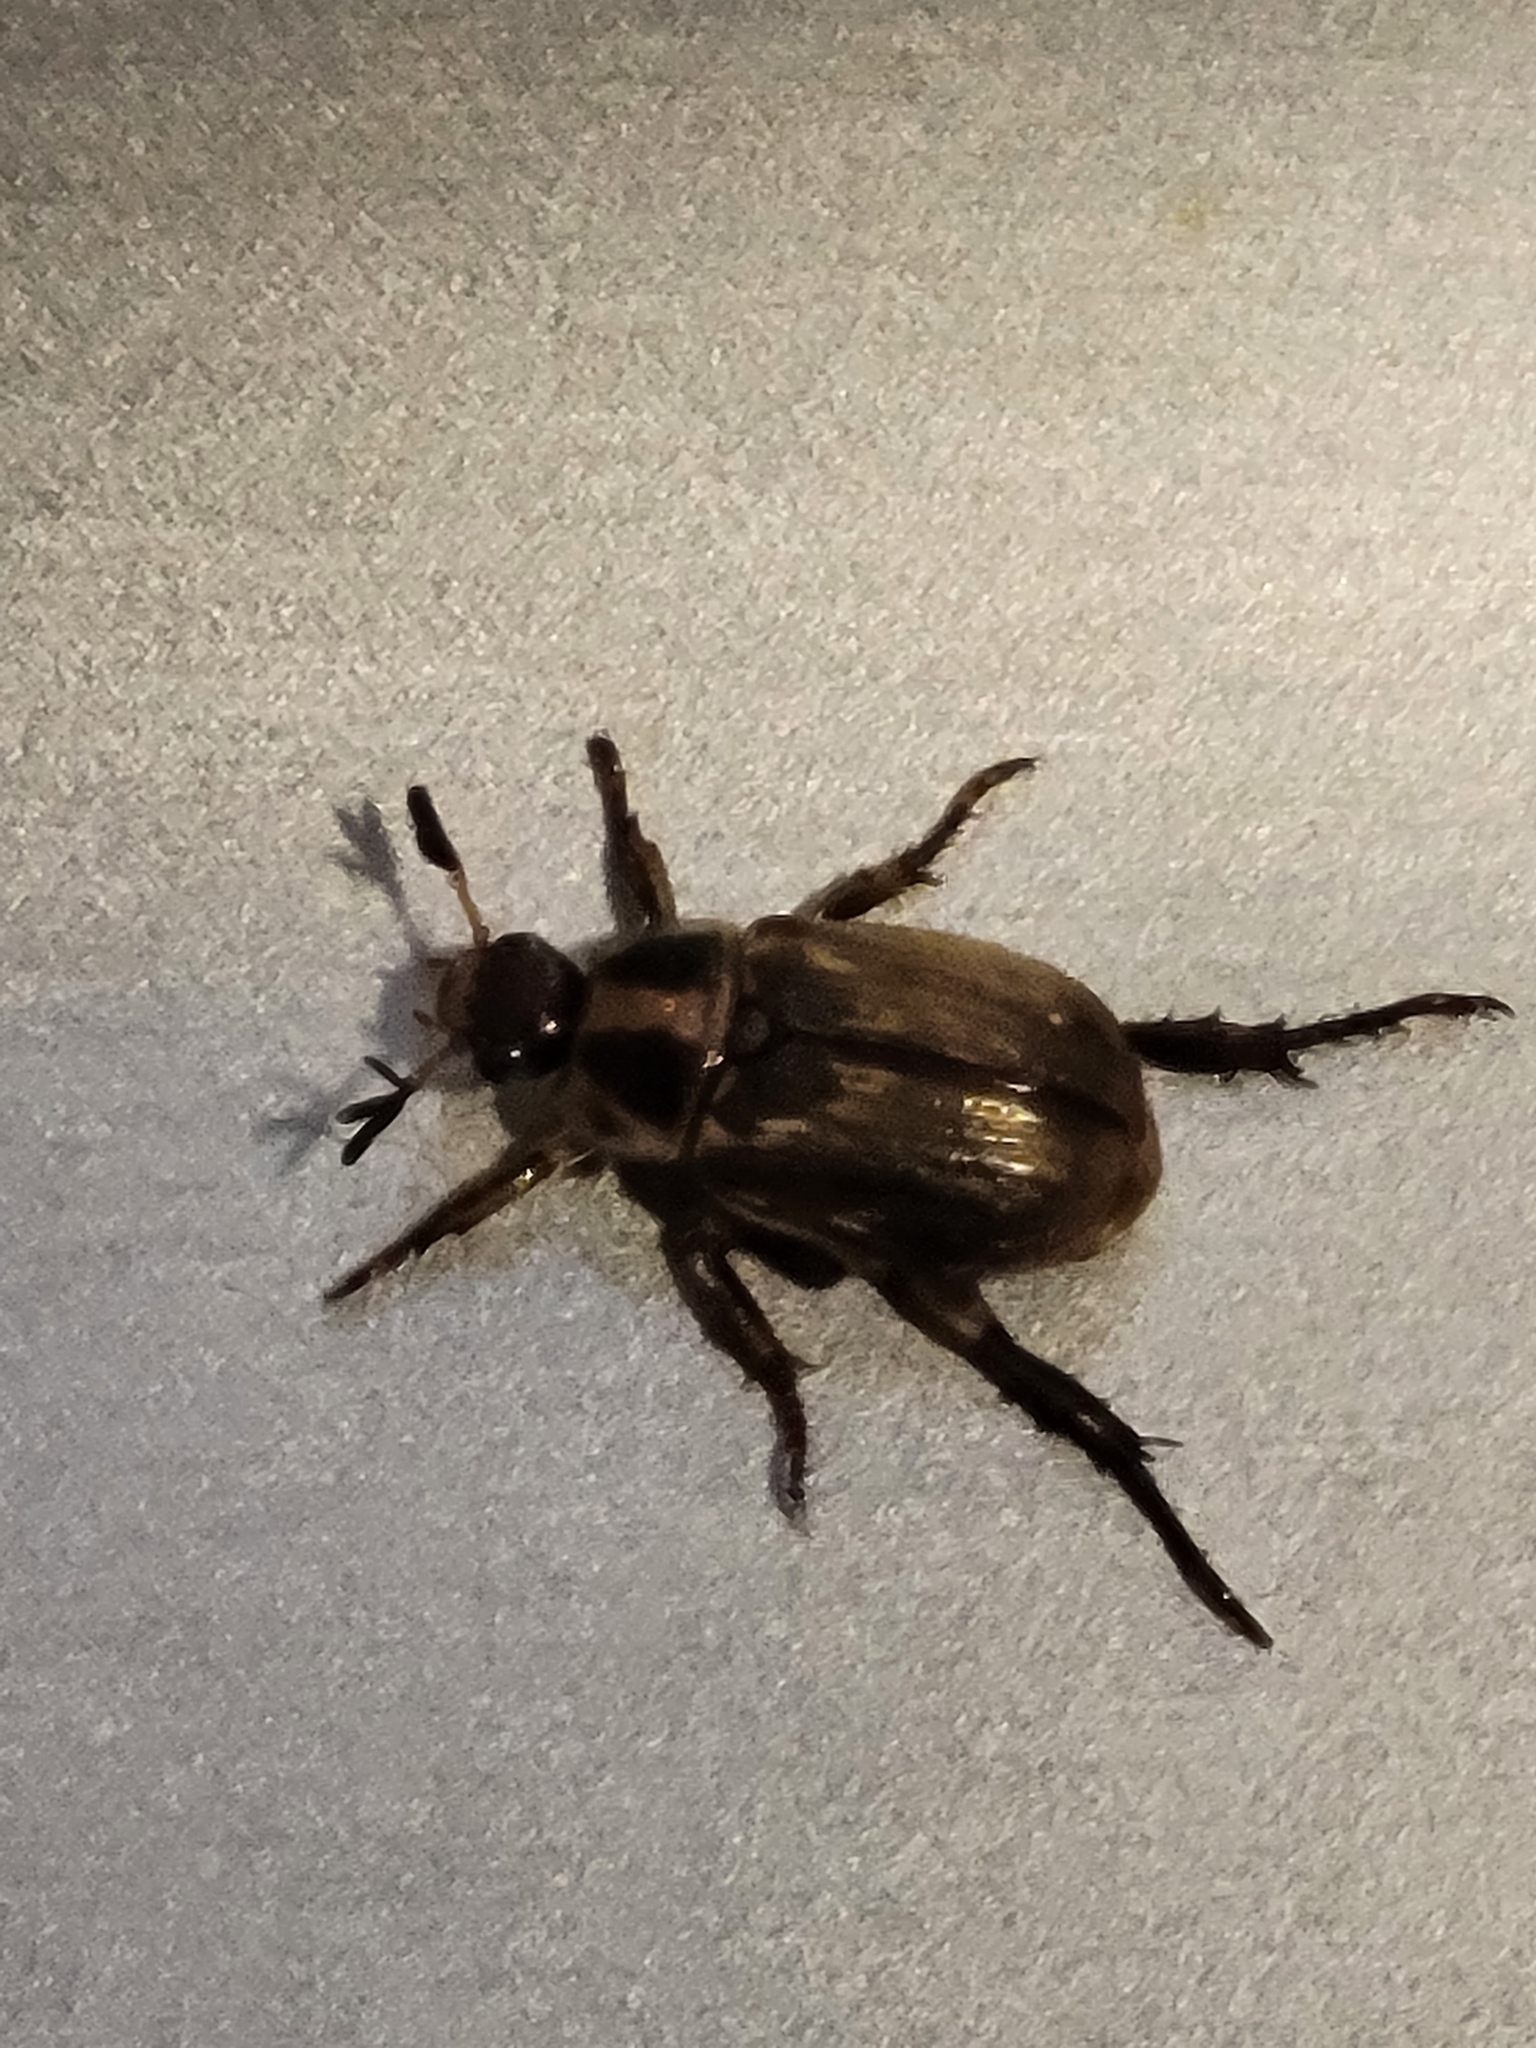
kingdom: Animalia
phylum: Arthropoda
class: Insecta
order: Coleoptera
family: Scarabaeidae
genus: Exomala
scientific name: Exomala orientalis
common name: Oriental beetle
